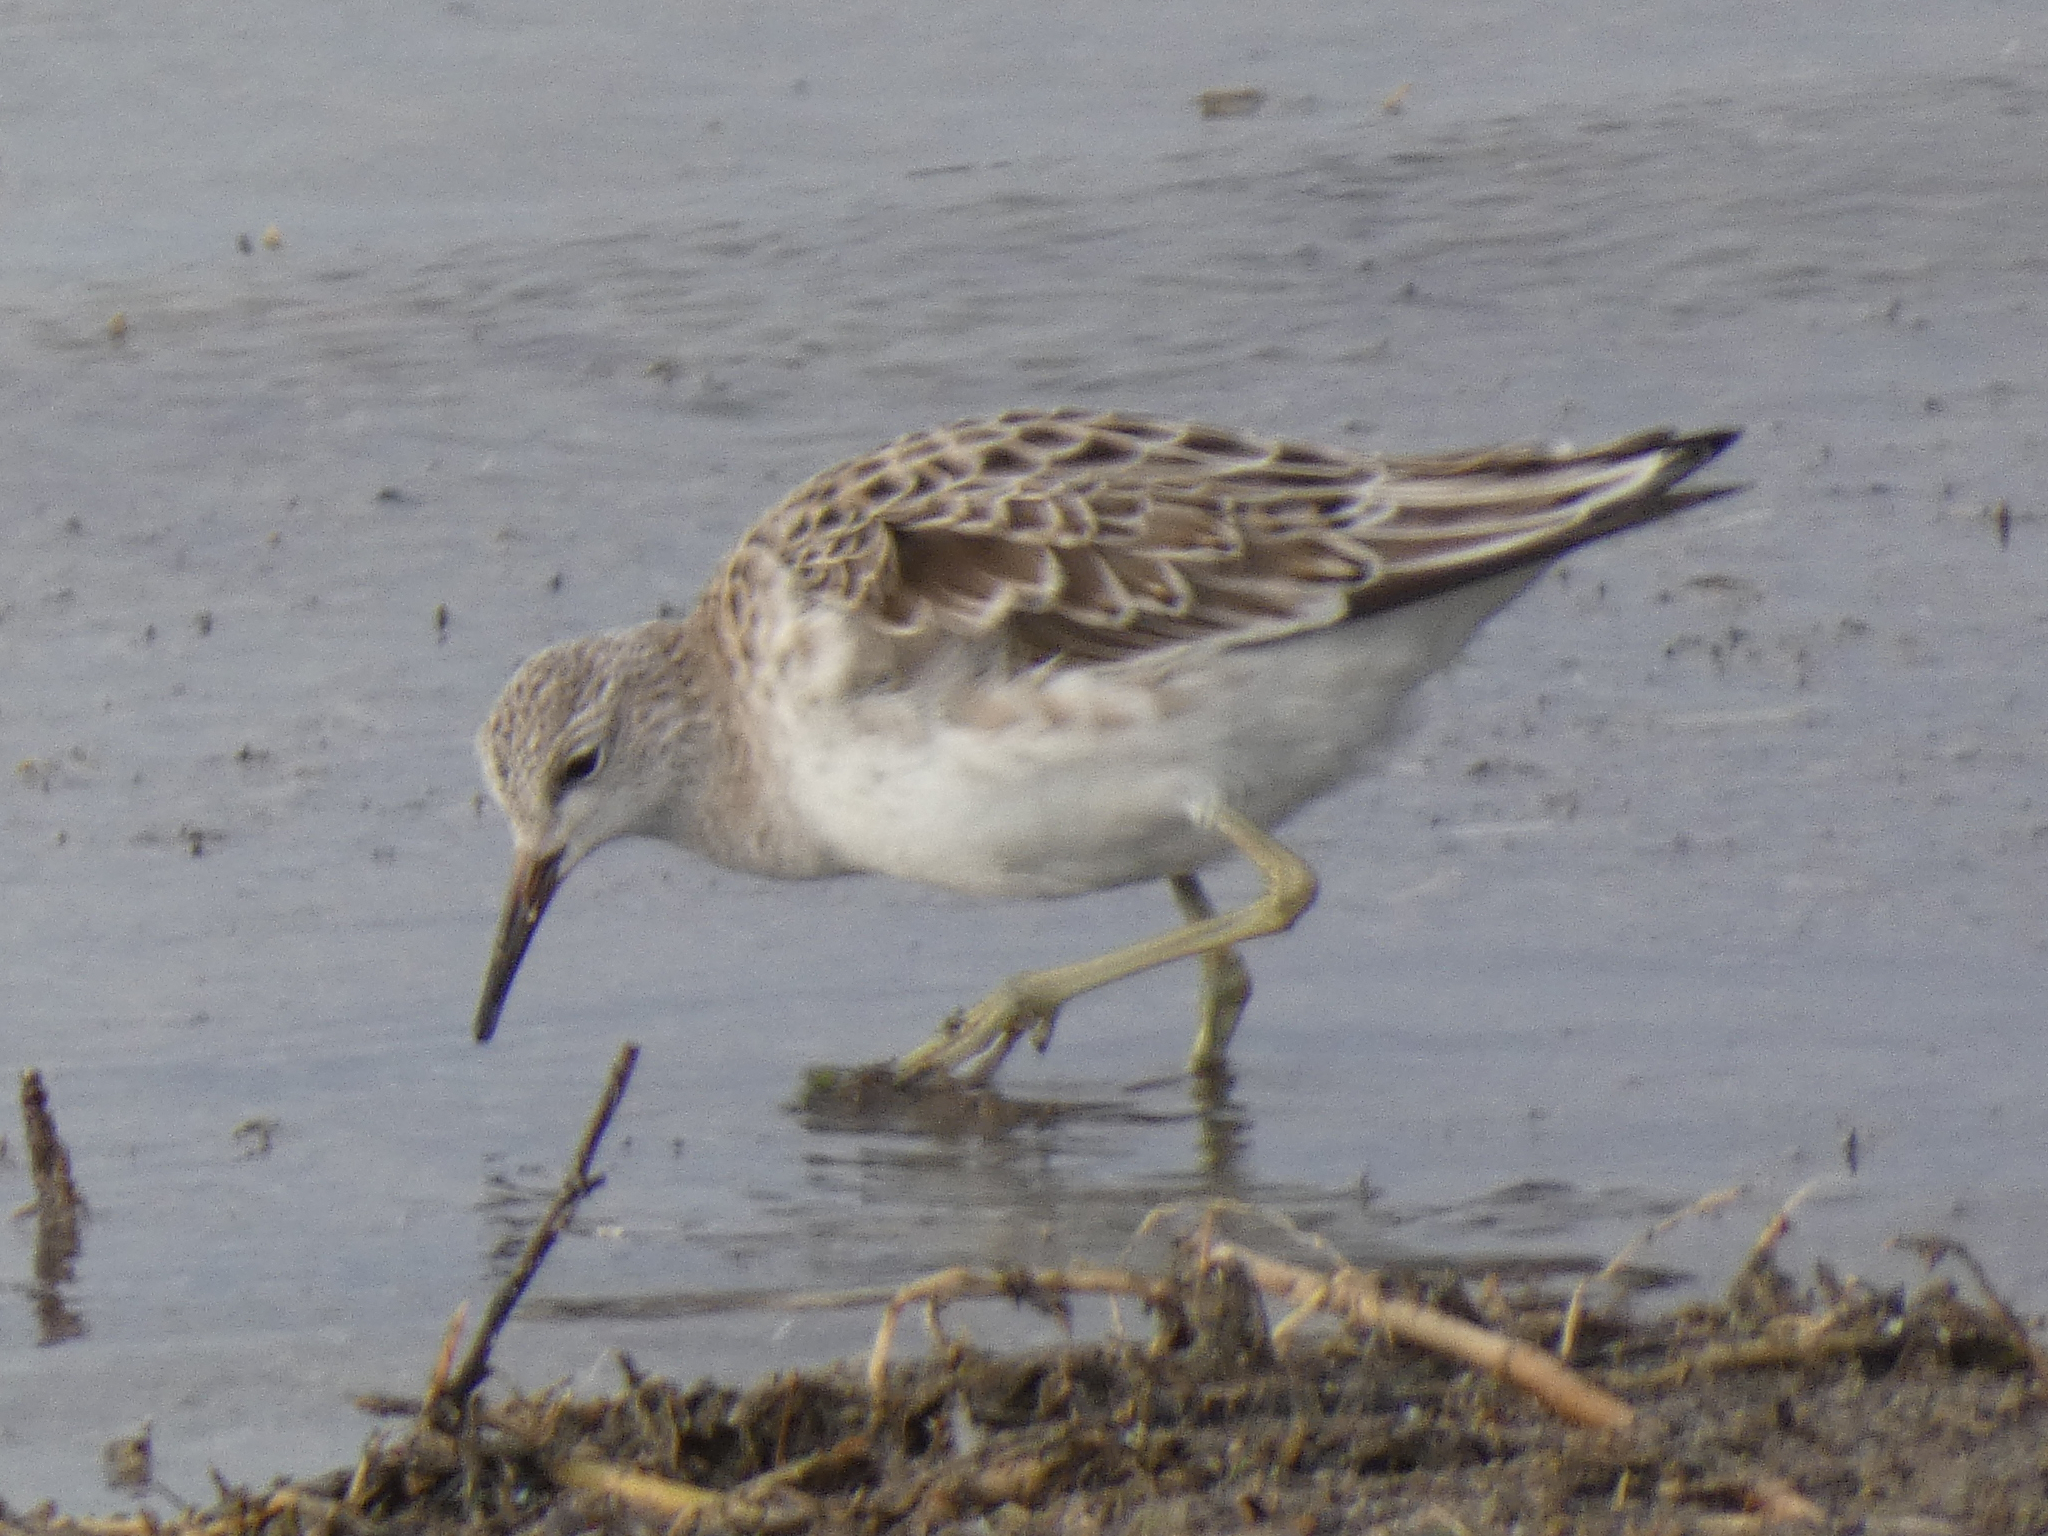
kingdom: Animalia
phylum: Chordata
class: Aves
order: Charadriiformes
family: Scolopacidae
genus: Calidris
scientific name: Calidris pugnax
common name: Ruff
